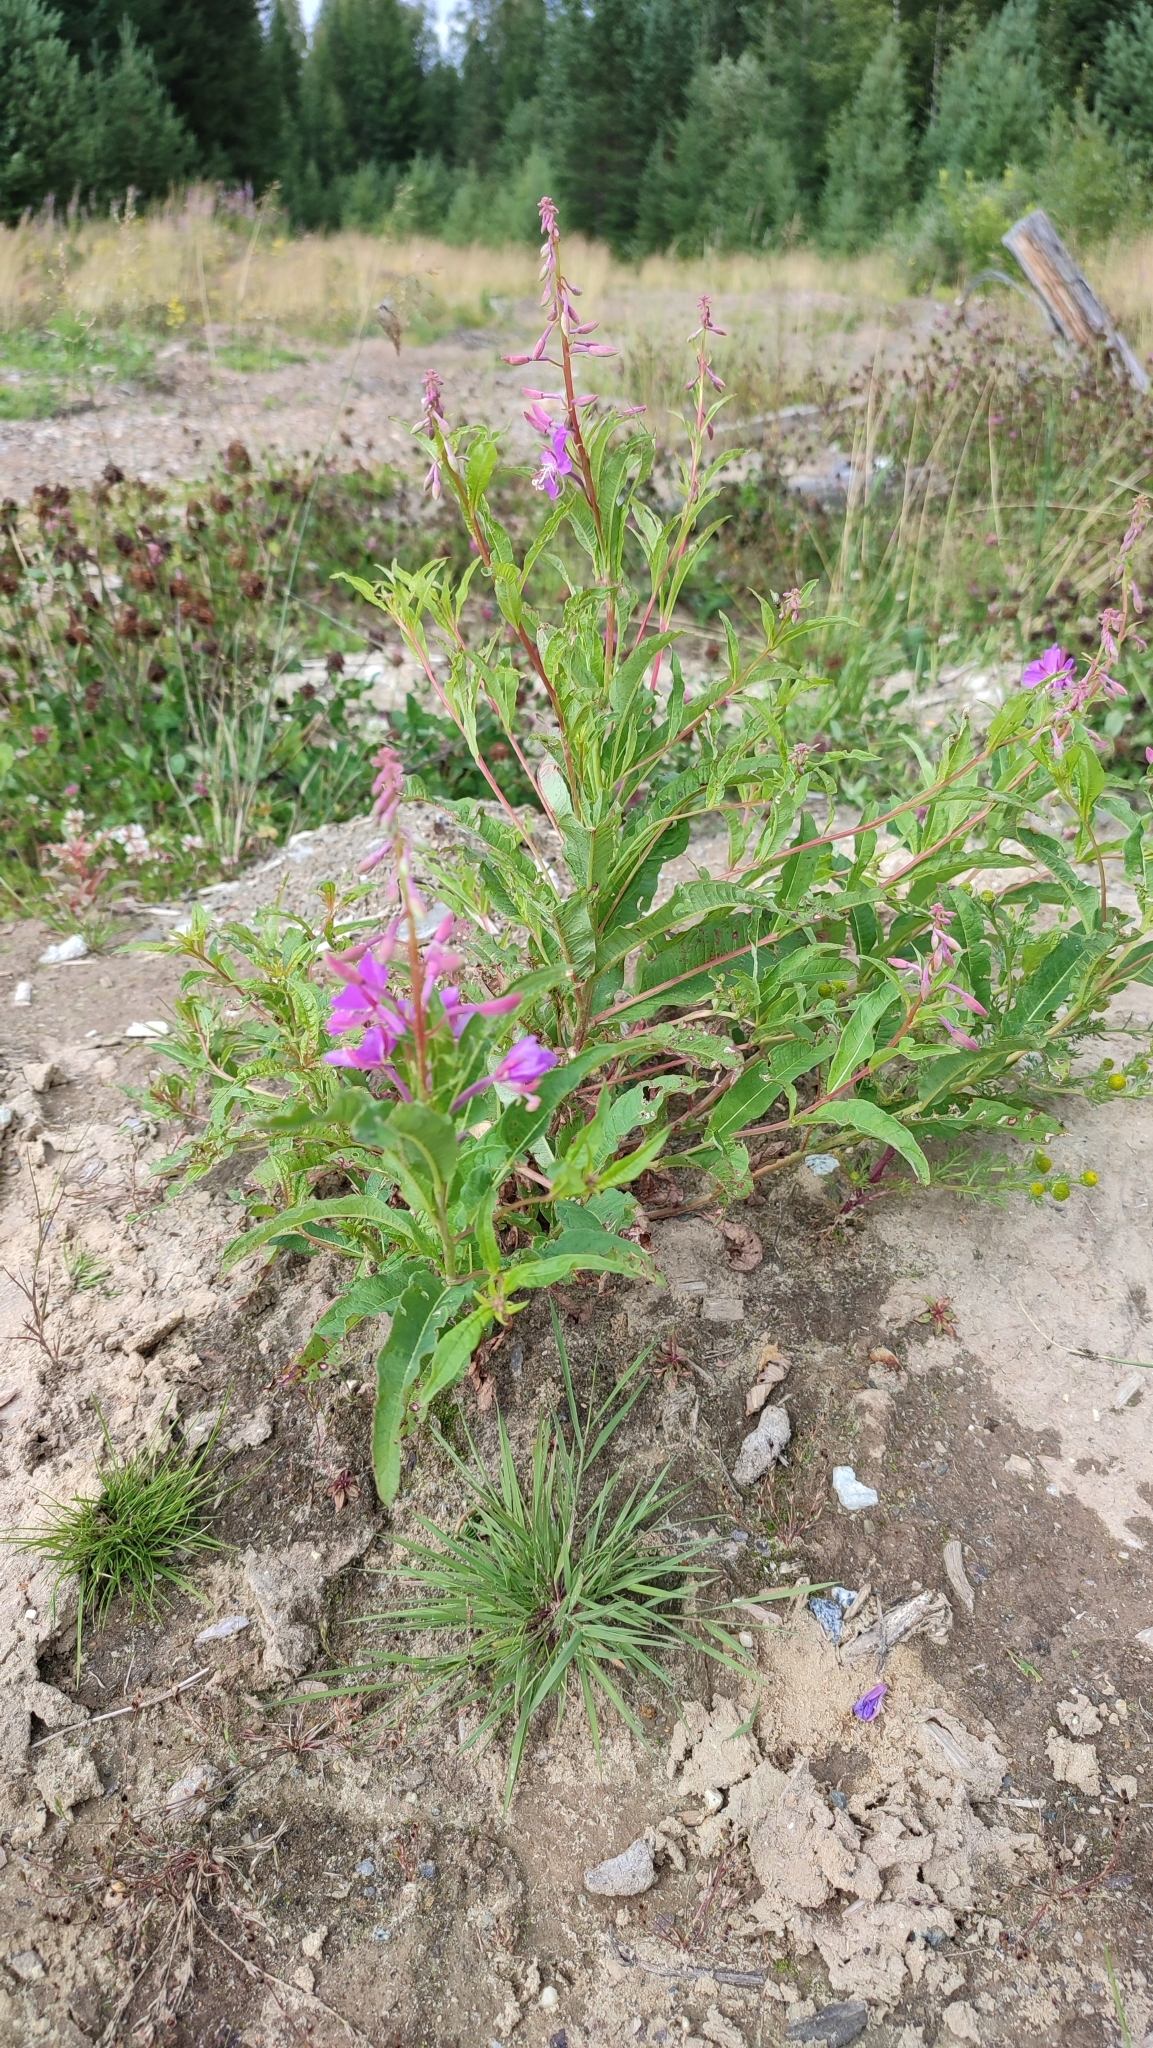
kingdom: Plantae
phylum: Tracheophyta
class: Magnoliopsida
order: Myrtales
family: Onagraceae
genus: Chamaenerion
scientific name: Chamaenerion angustifolium
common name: Fireweed
